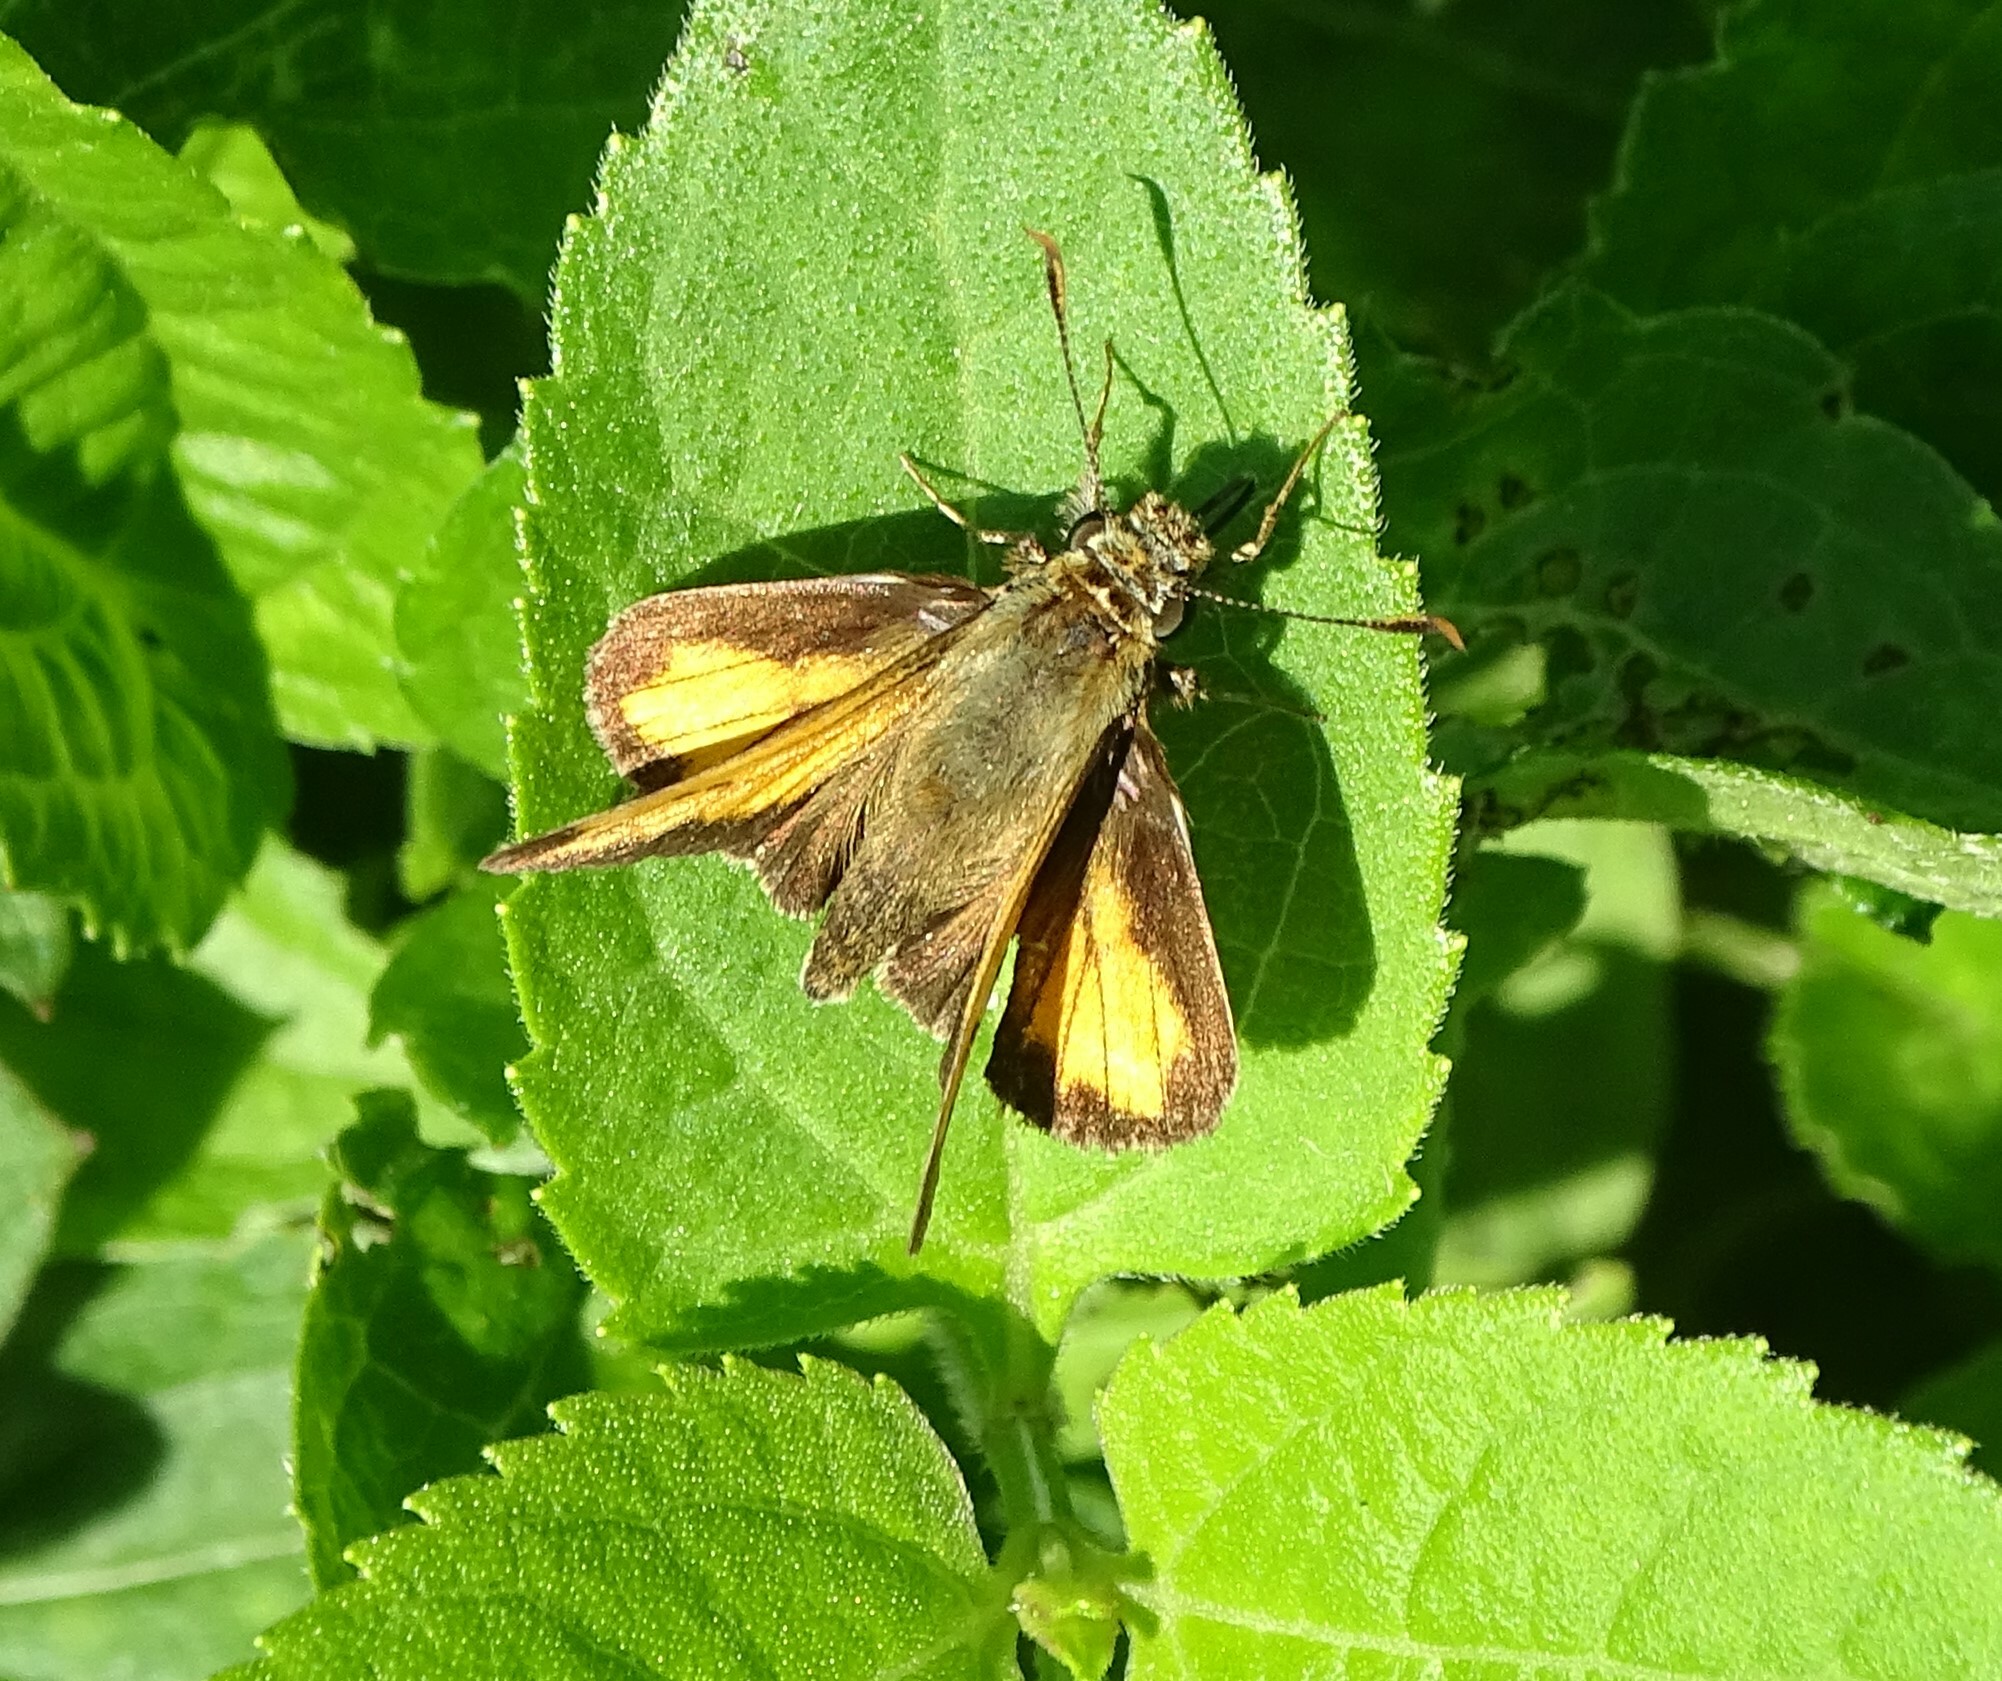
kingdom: Animalia
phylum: Arthropoda
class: Insecta
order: Lepidoptera
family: Hesperiidae
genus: Lon
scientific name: Lon hobomok
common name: Hobomok skipper
